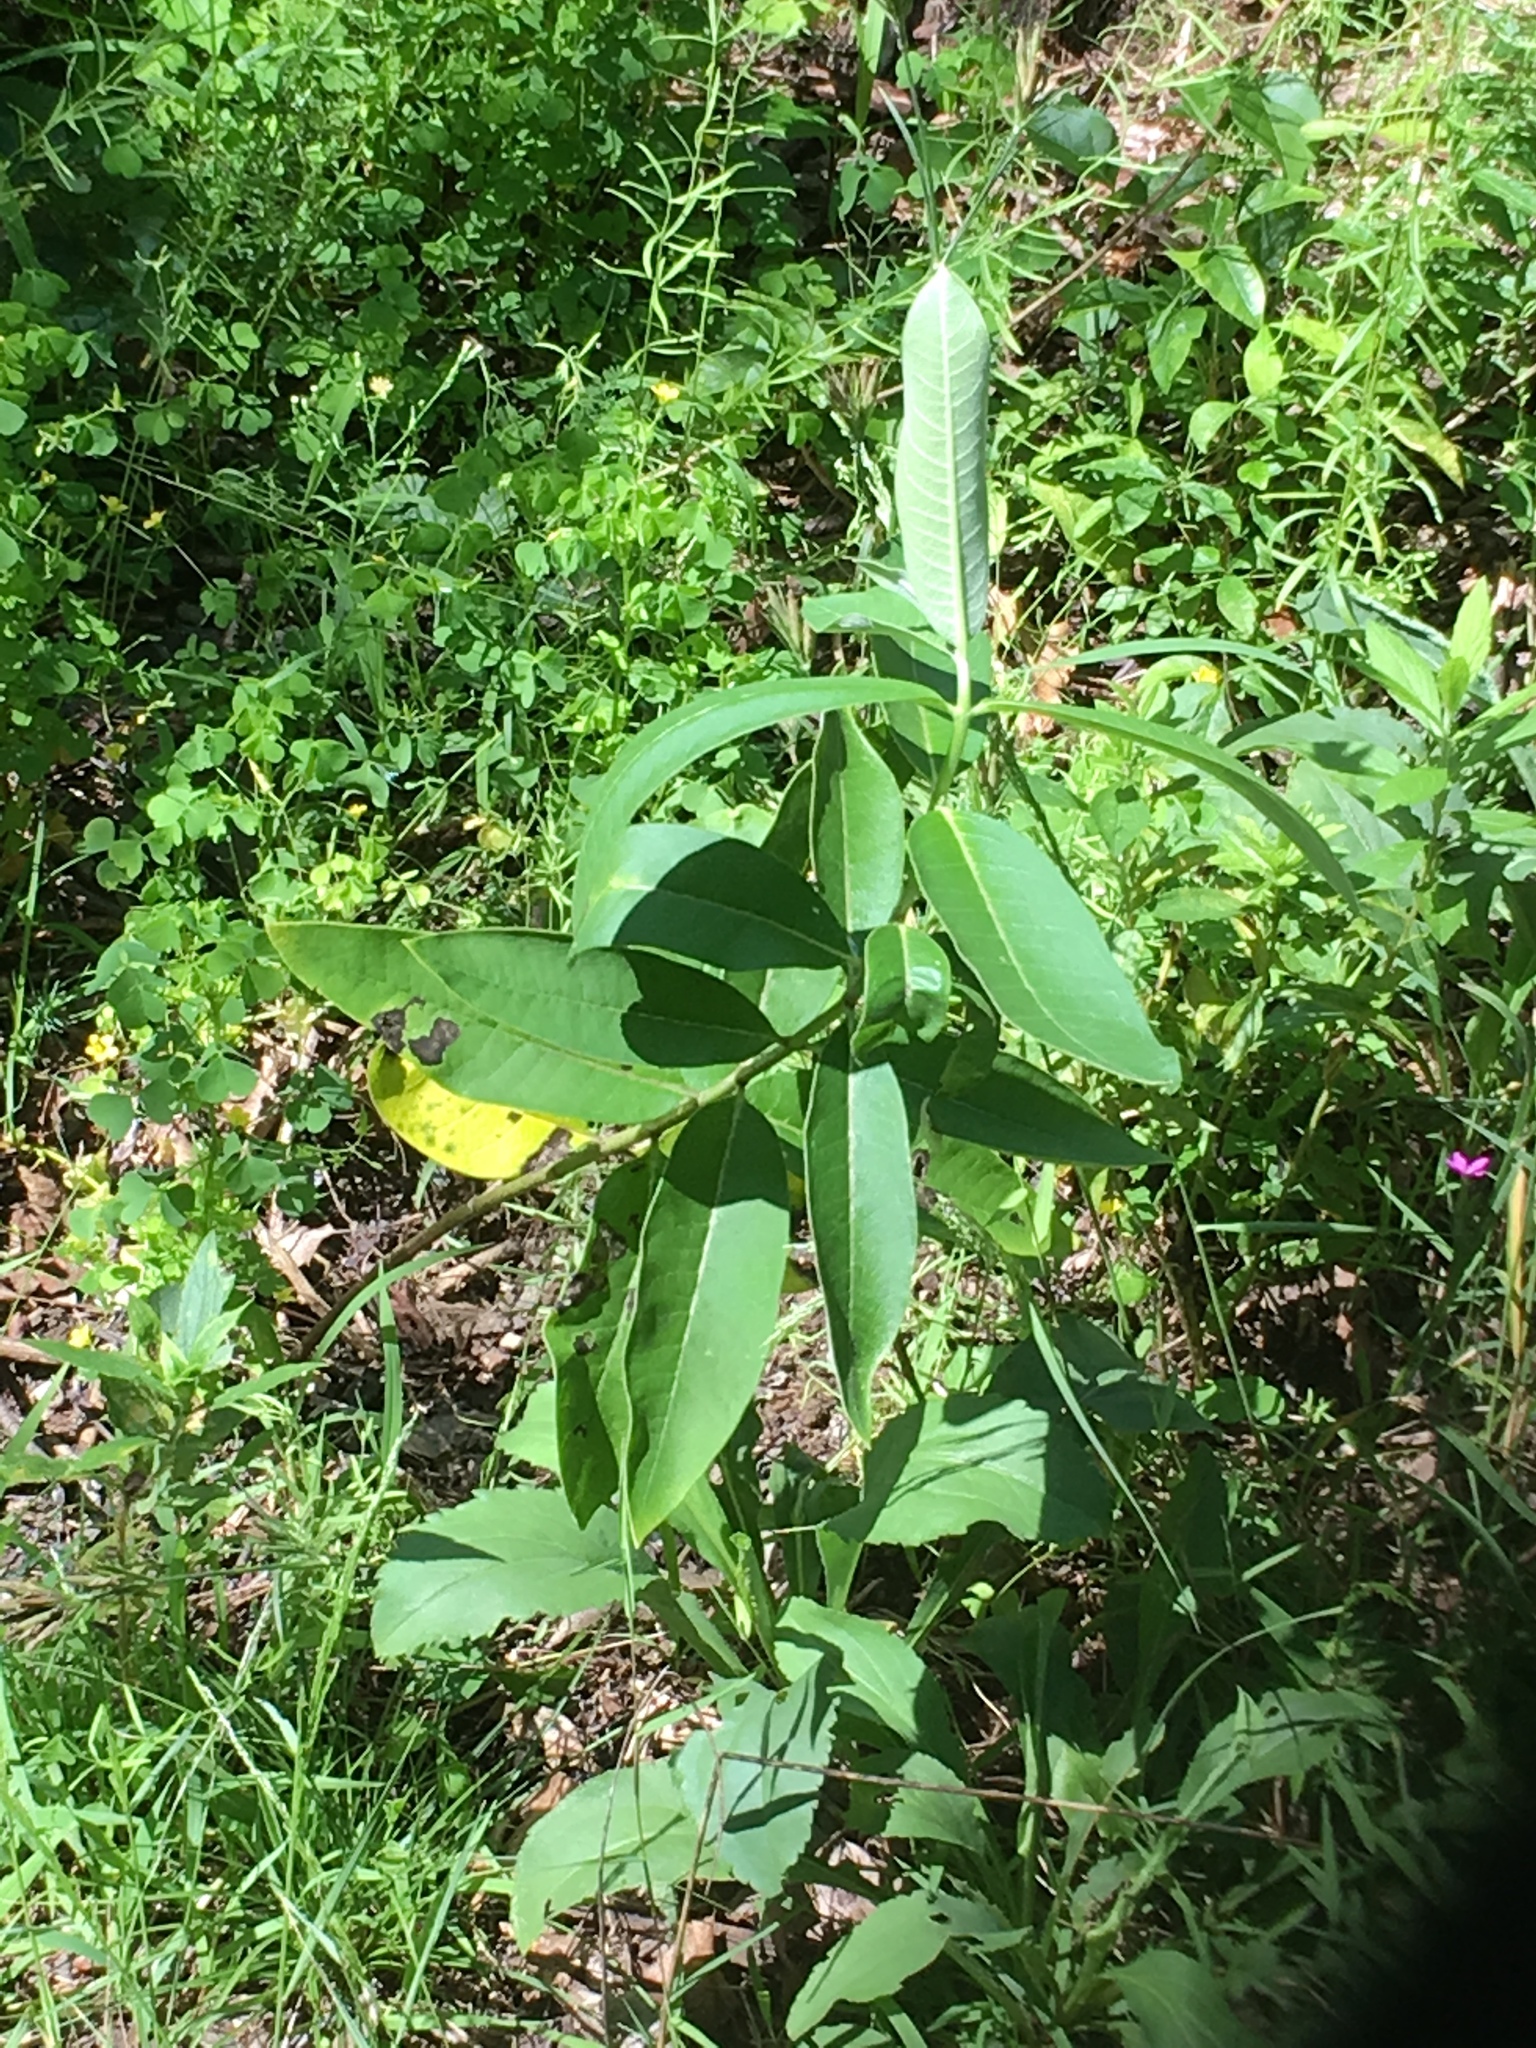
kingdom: Plantae
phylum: Tracheophyta
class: Magnoliopsida
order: Gentianales
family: Apocynaceae
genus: Asclepias
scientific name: Asclepias syriaca
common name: Common milkweed
